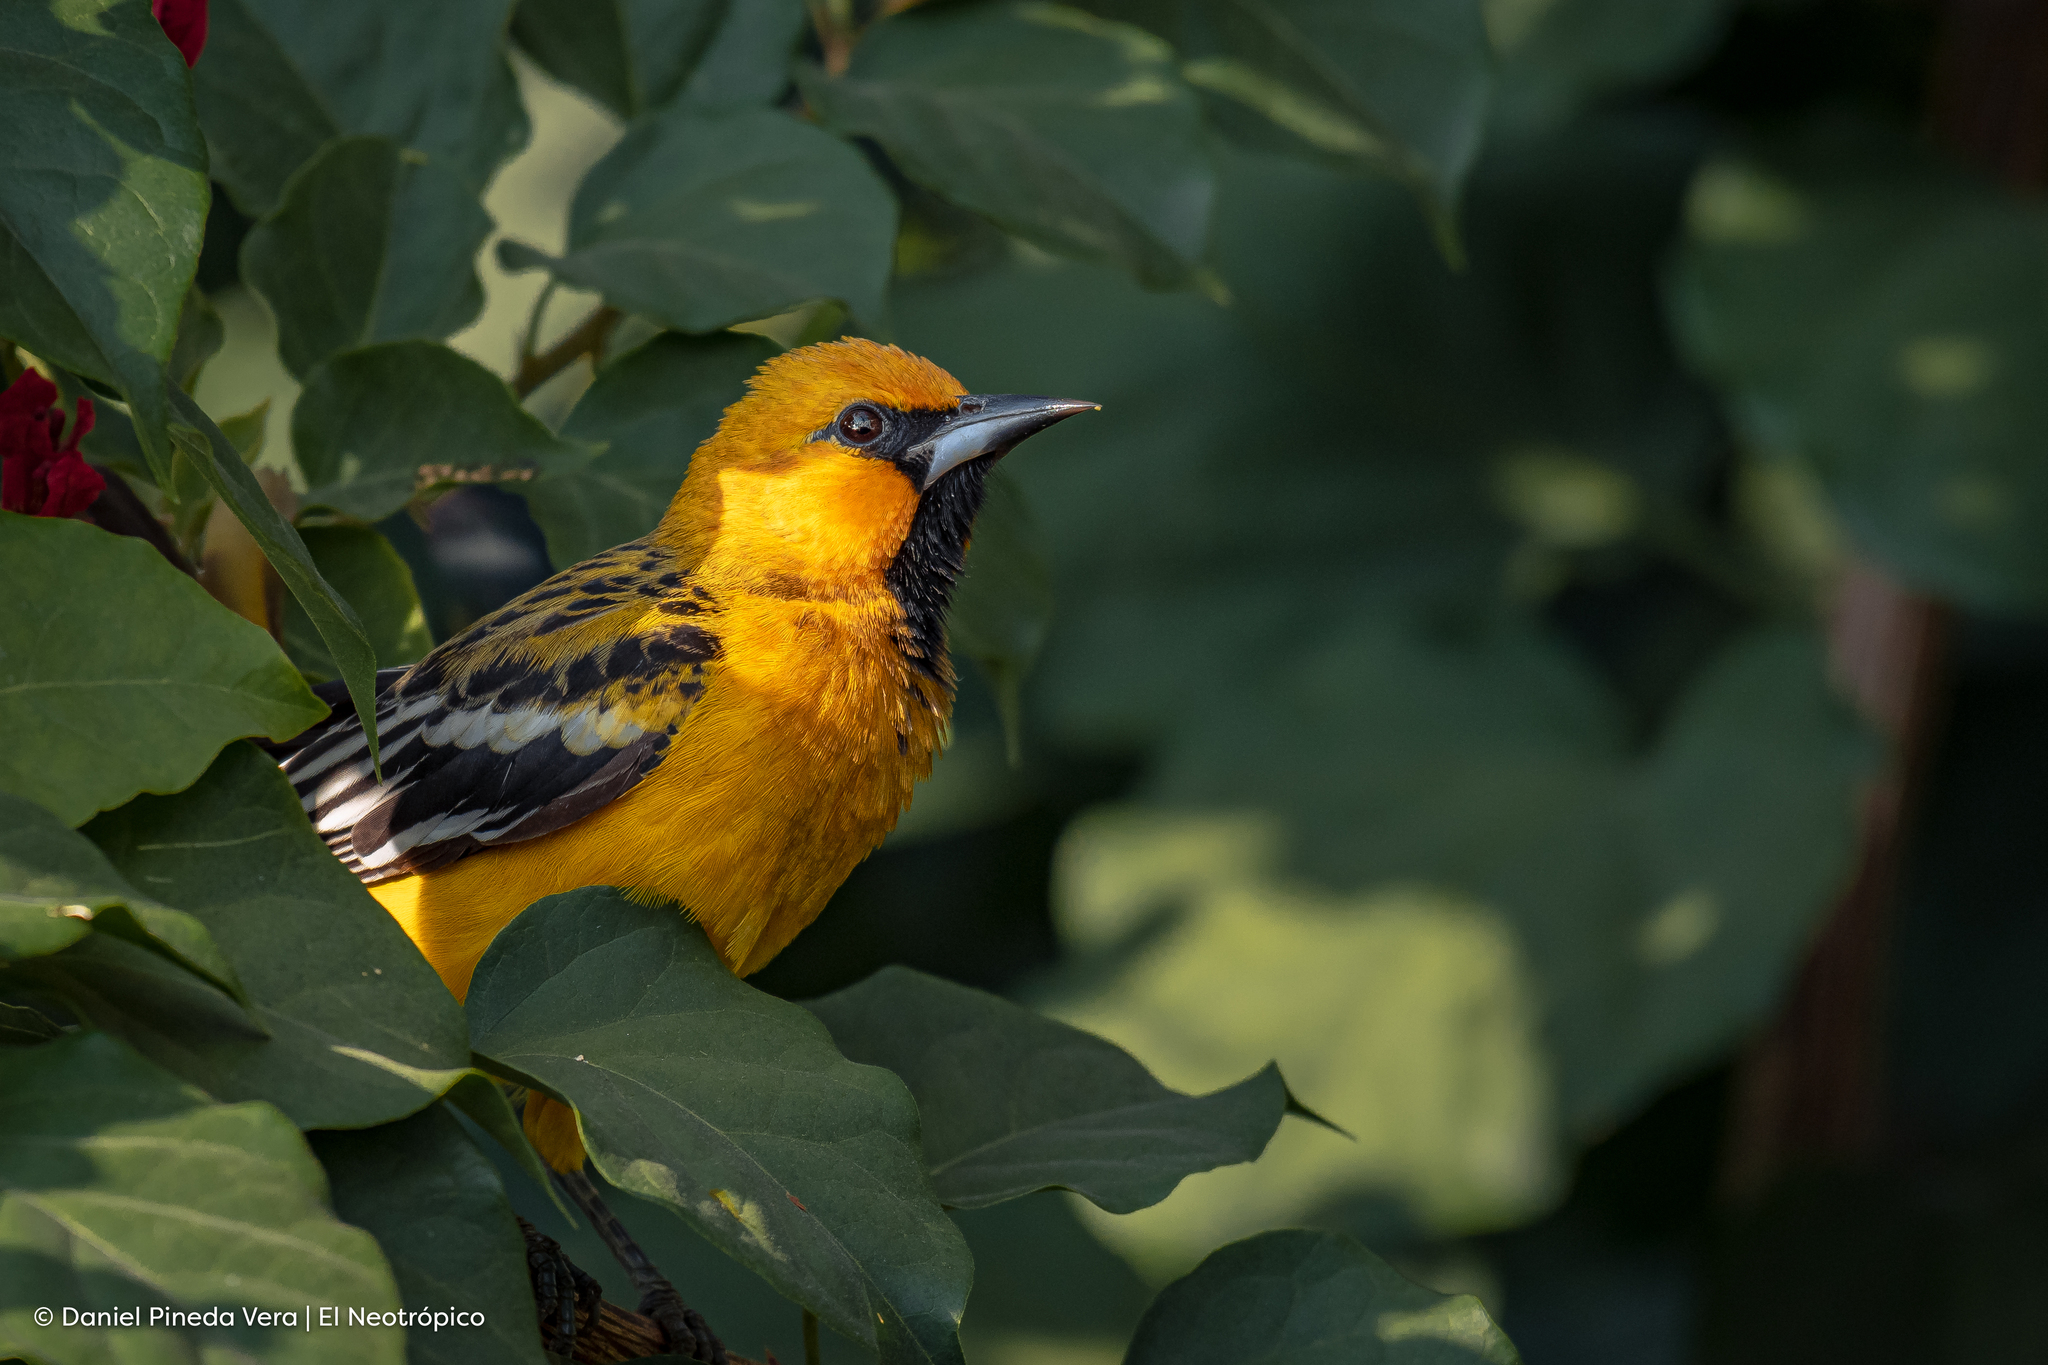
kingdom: Animalia
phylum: Chordata
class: Aves
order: Passeriformes
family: Icteridae
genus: Icterus
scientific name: Icterus pustulatus
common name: Streak-backed oriole
